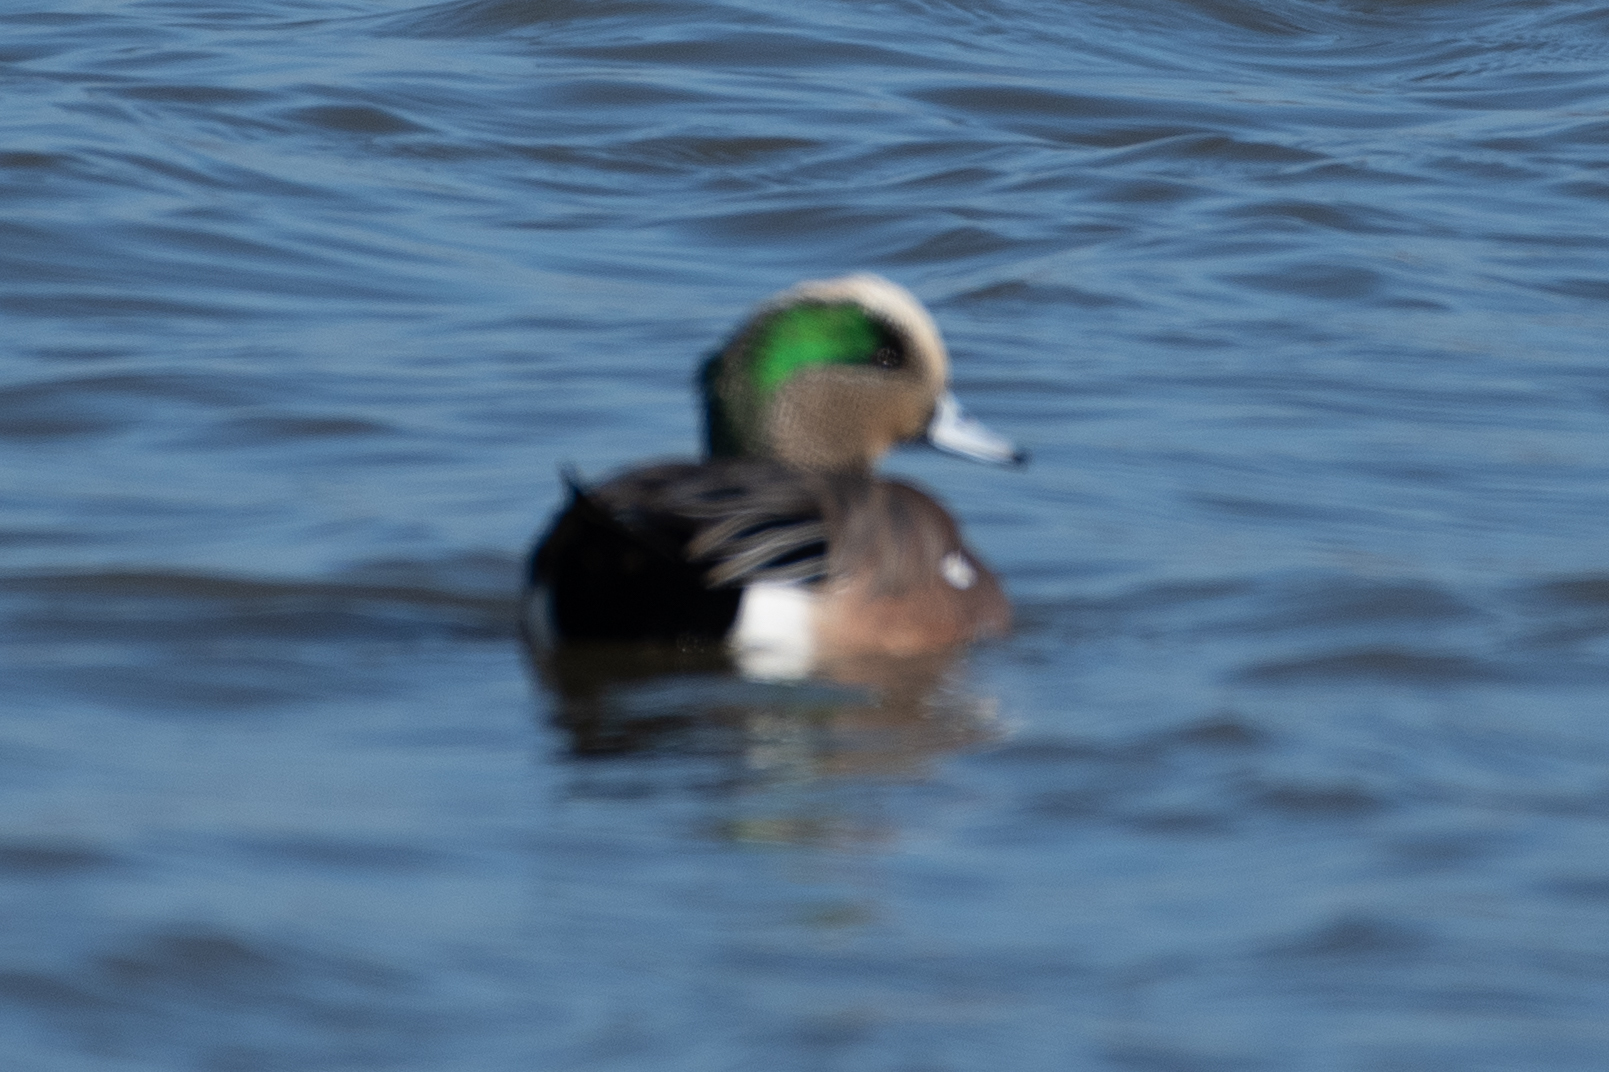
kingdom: Animalia
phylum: Chordata
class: Aves
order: Anseriformes
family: Anatidae
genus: Mareca
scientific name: Mareca americana
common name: American wigeon
